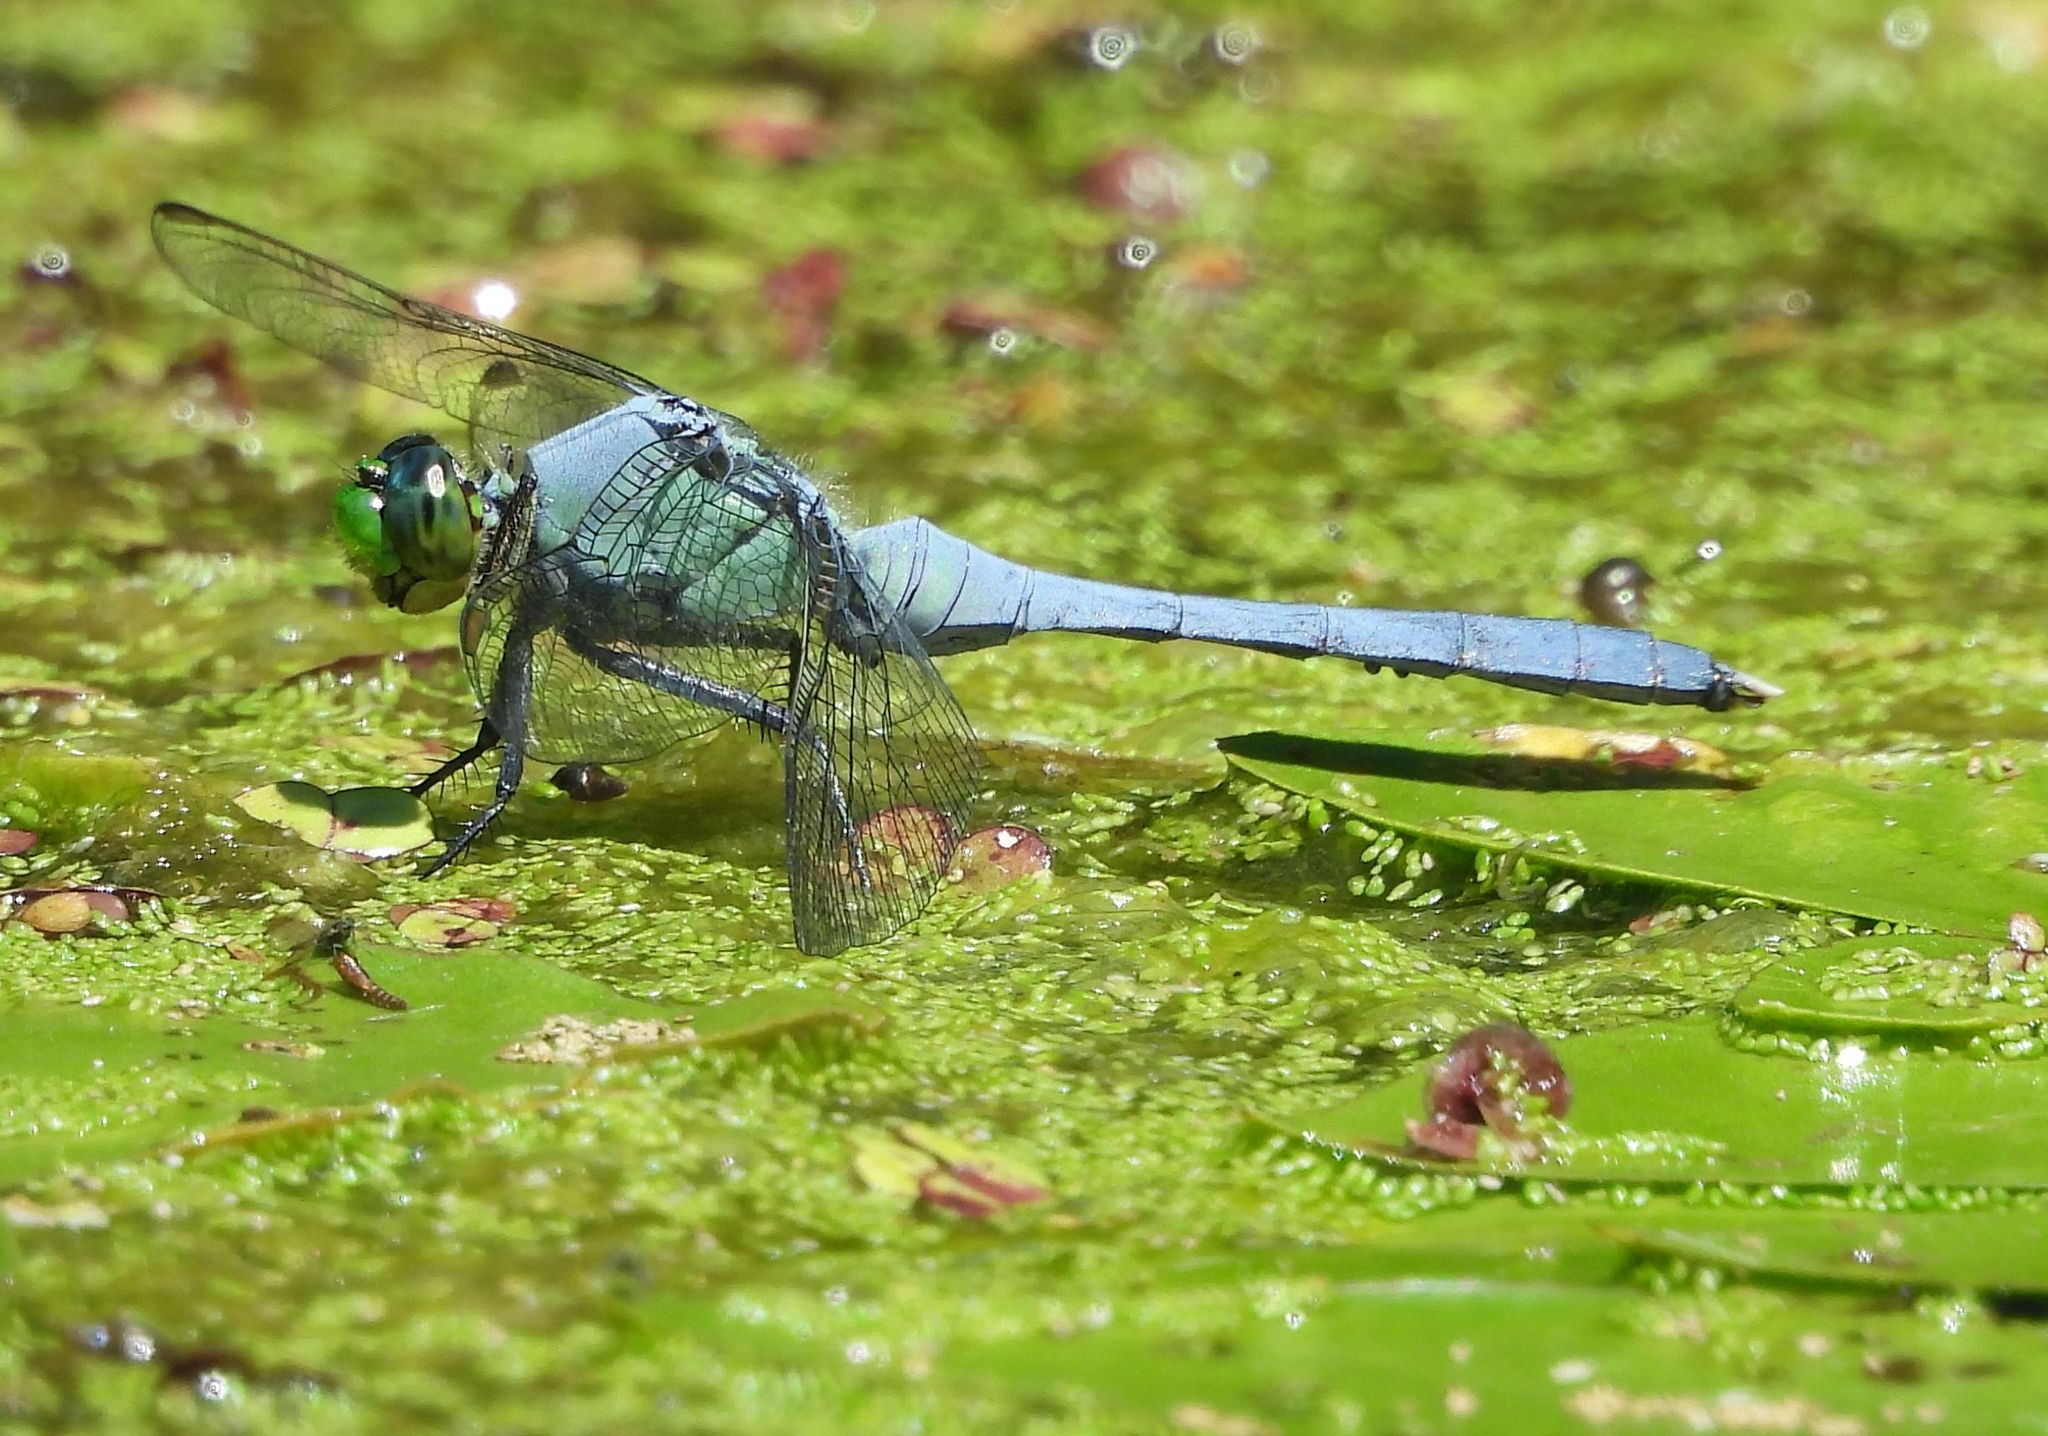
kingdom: Animalia
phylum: Arthropoda
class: Insecta
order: Odonata
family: Libellulidae
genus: Erythemis
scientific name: Erythemis simplicicollis
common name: Eastern pondhawk
